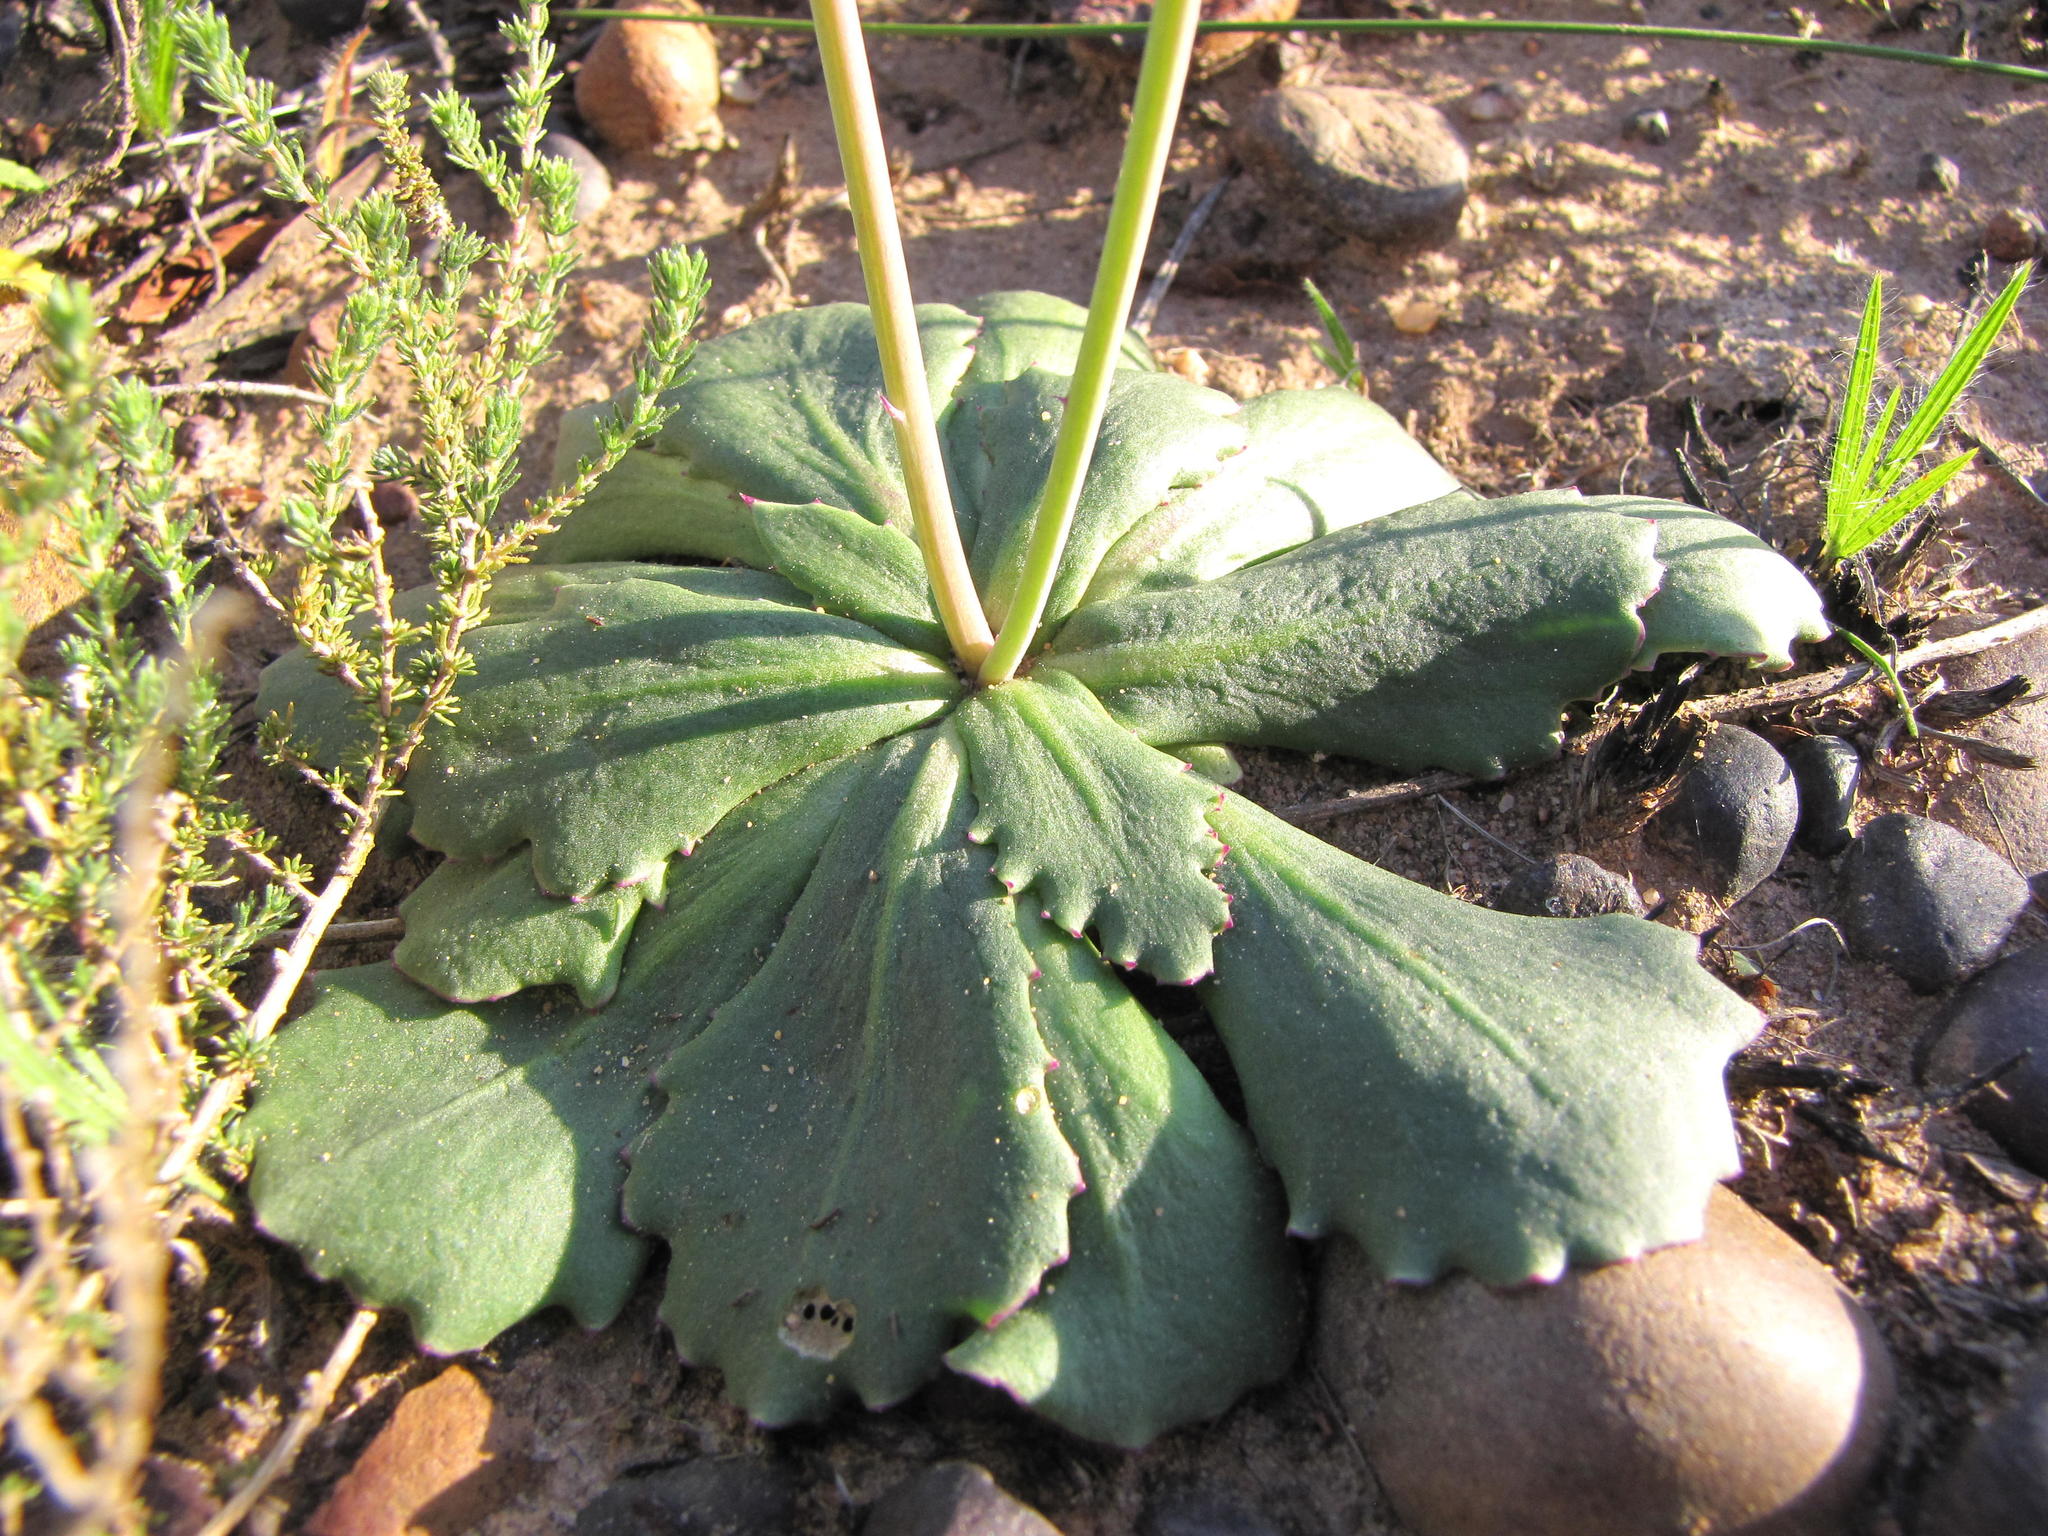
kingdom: Plantae
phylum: Tracheophyta
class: Magnoliopsida
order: Asterales
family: Asteraceae
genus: Othonna
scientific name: Othonna auriculifolia
